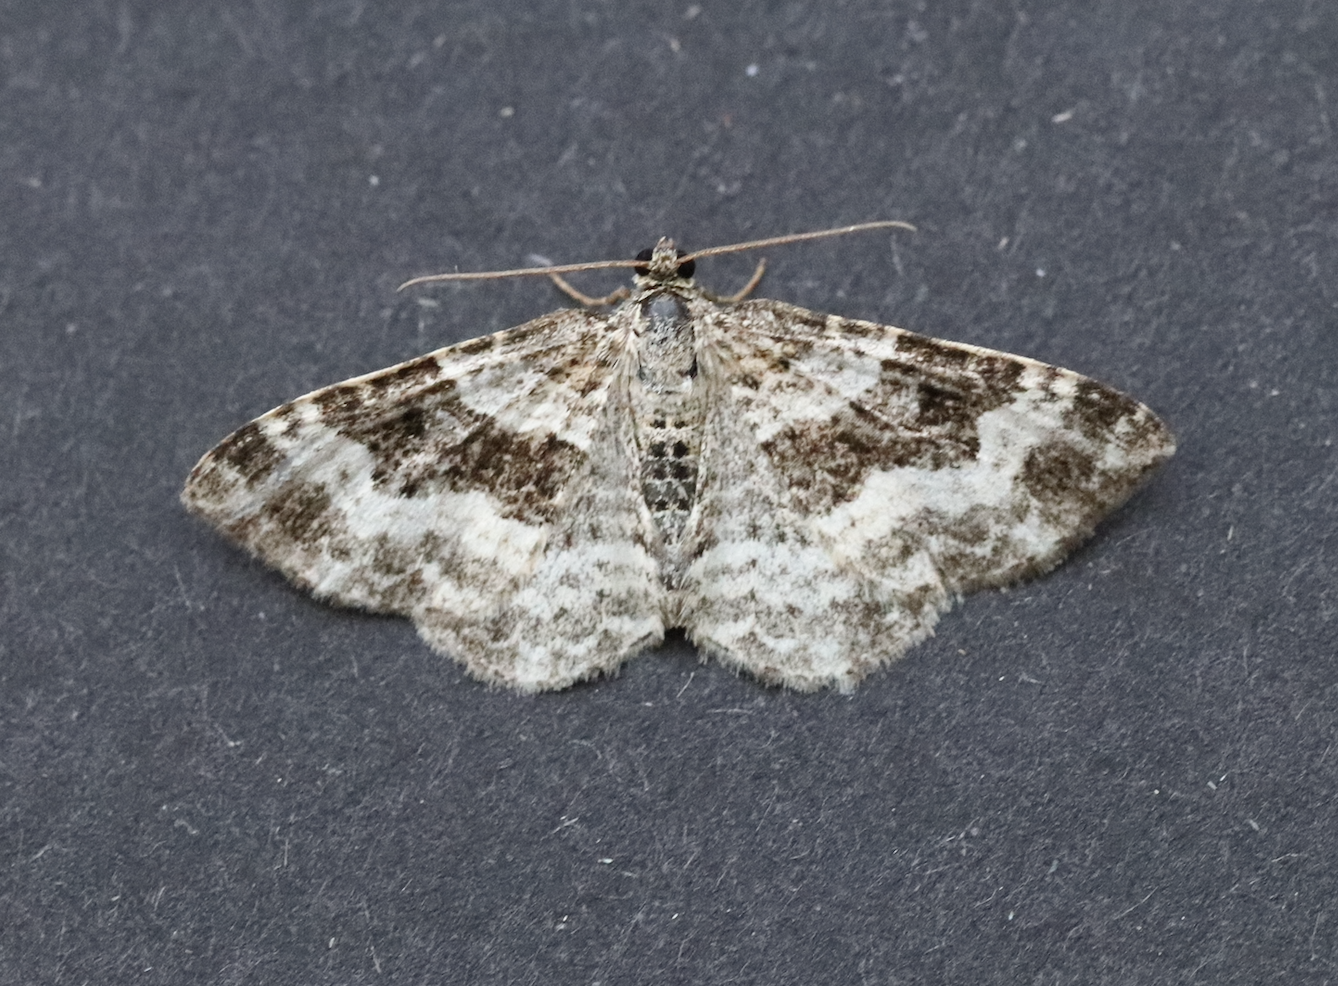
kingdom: Animalia
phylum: Arthropoda
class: Insecta
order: Lepidoptera
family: Geometridae
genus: Epirrhoe
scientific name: Epirrhoe alternata
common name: Common carpet
